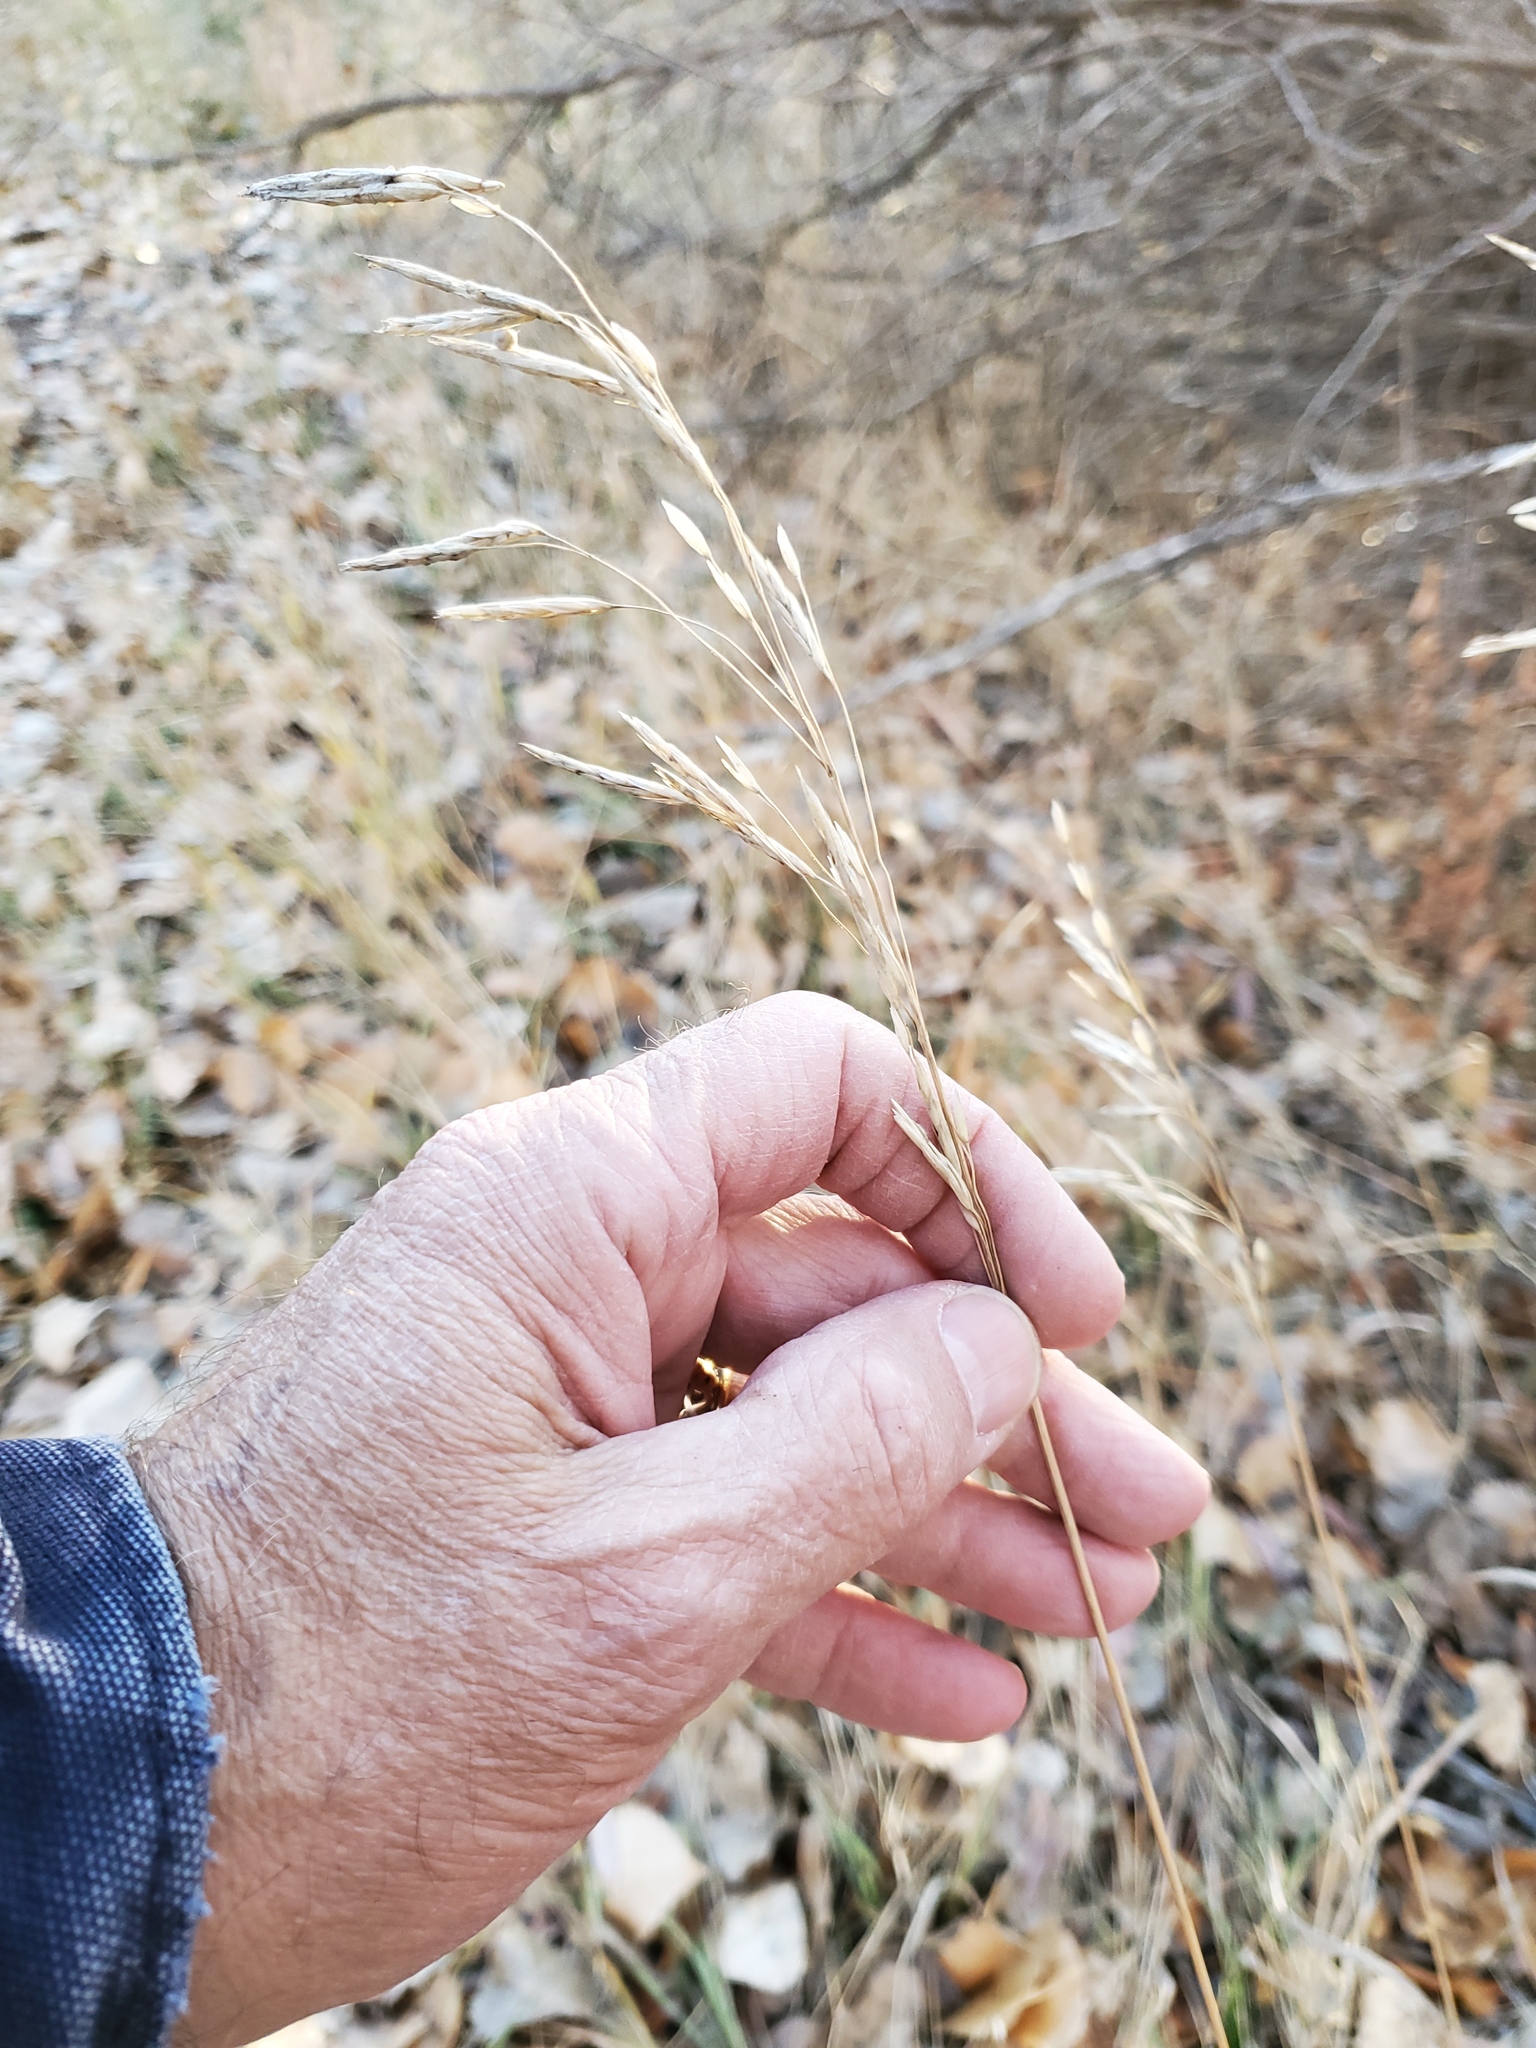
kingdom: Plantae
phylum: Tracheophyta
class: Liliopsida
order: Poales
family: Poaceae
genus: Bromus
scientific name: Bromus inermis
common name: Smooth brome
